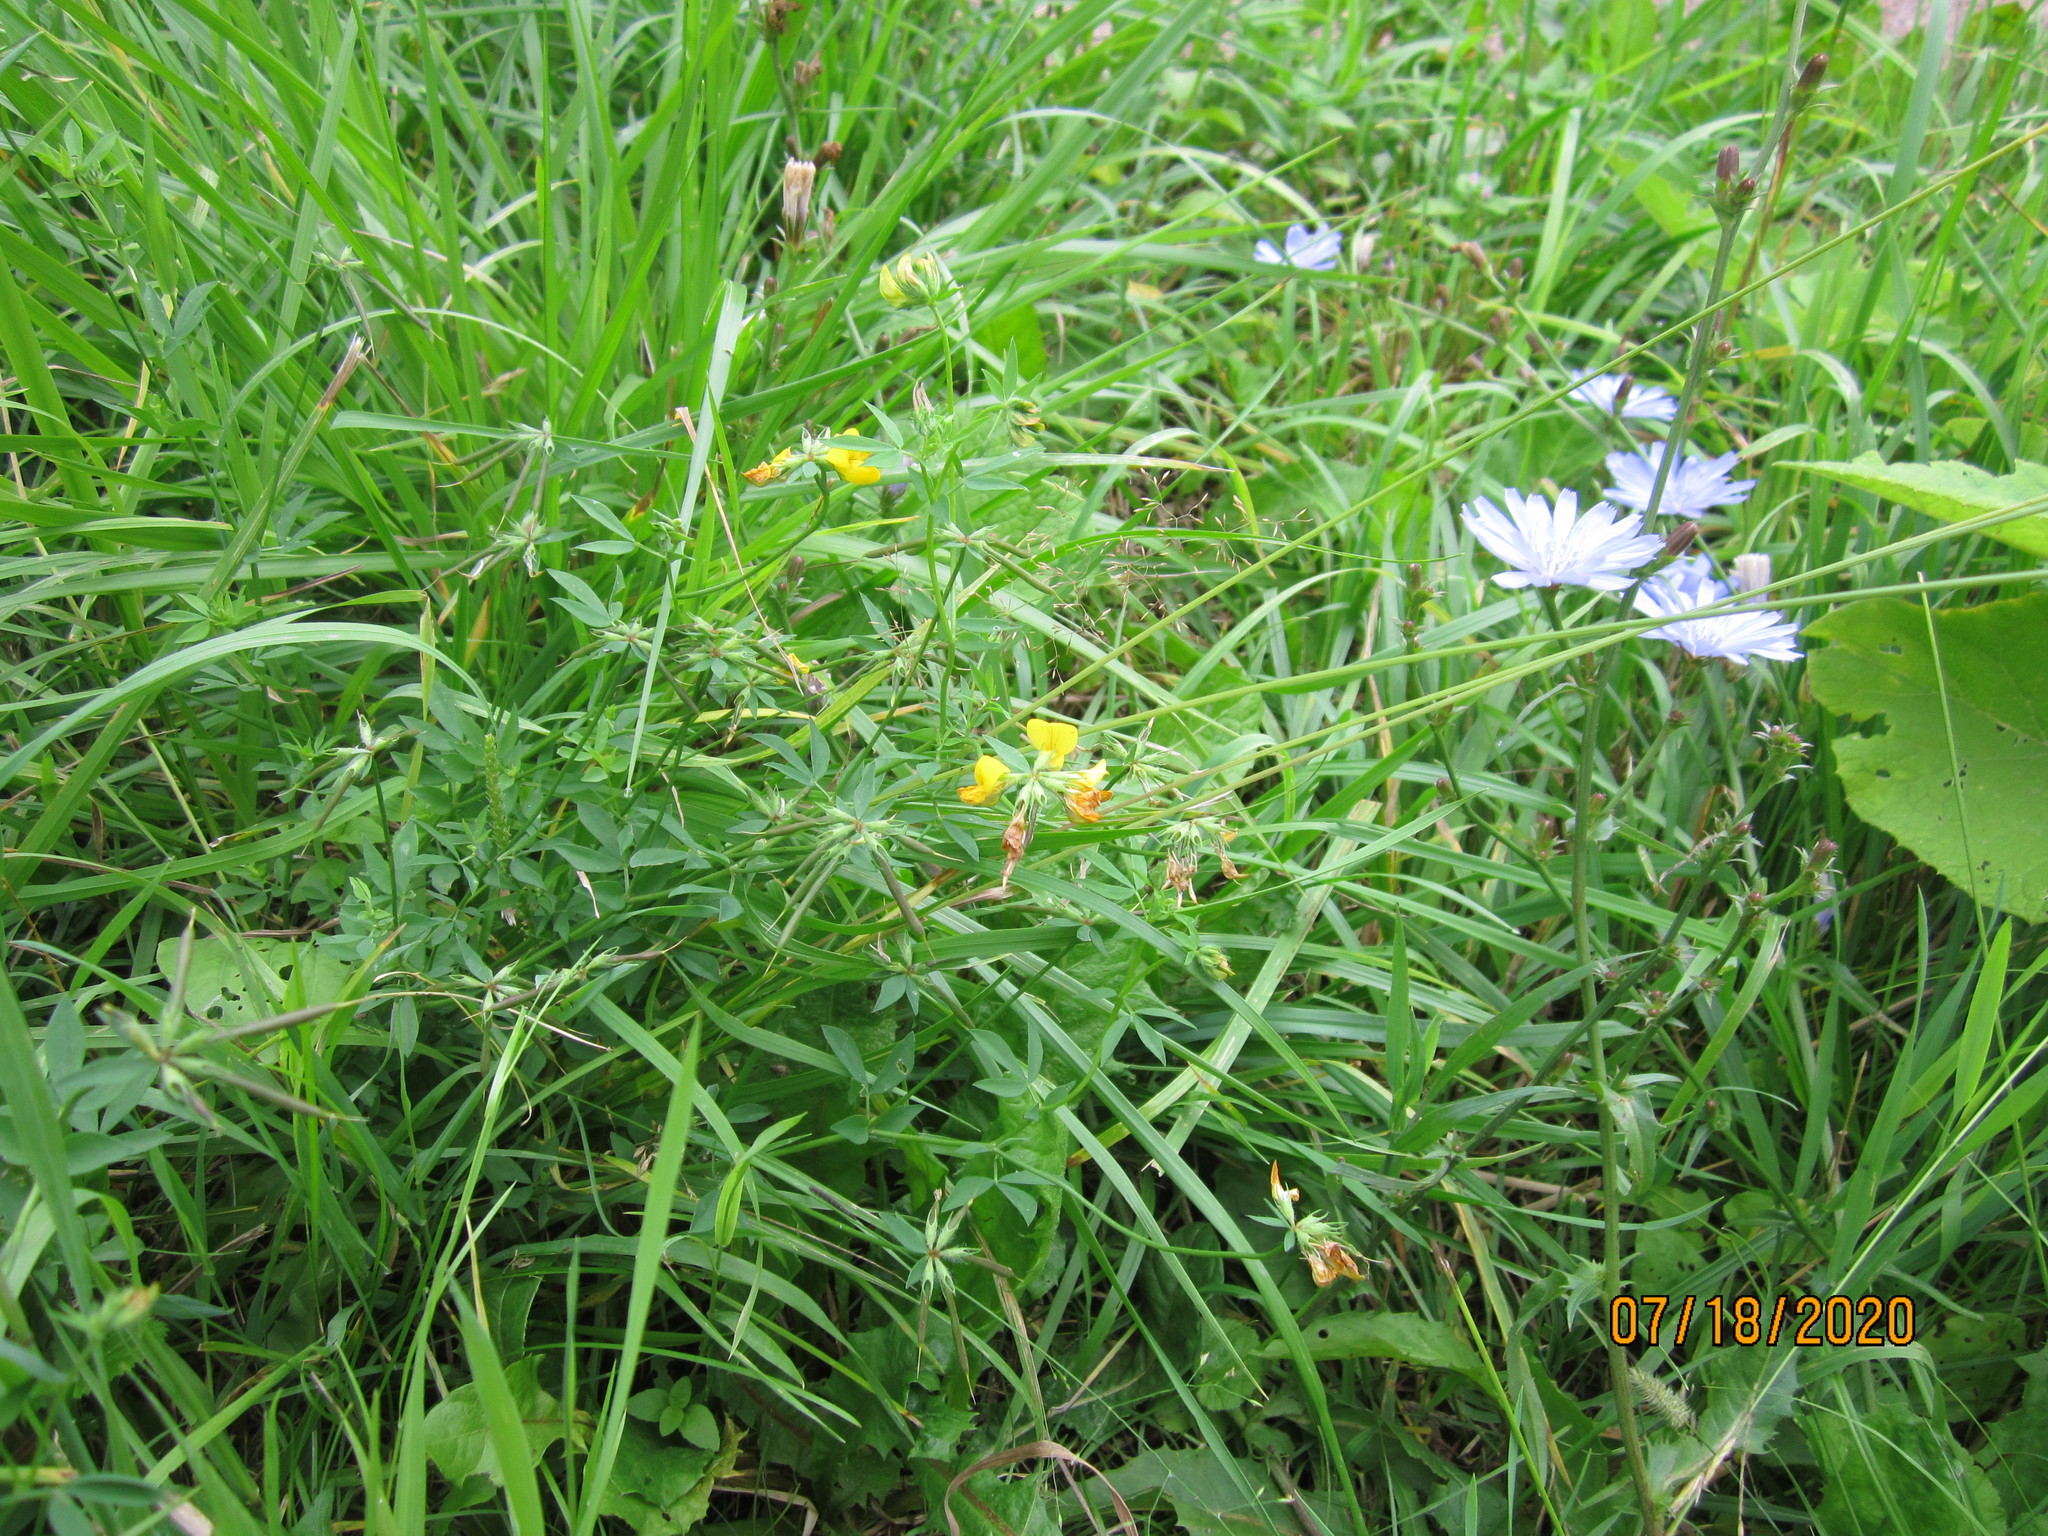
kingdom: Plantae
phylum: Tracheophyta
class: Magnoliopsida
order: Fabales
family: Fabaceae
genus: Lotus
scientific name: Lotus corniculatus
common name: Common bird's-foot-trefoil
